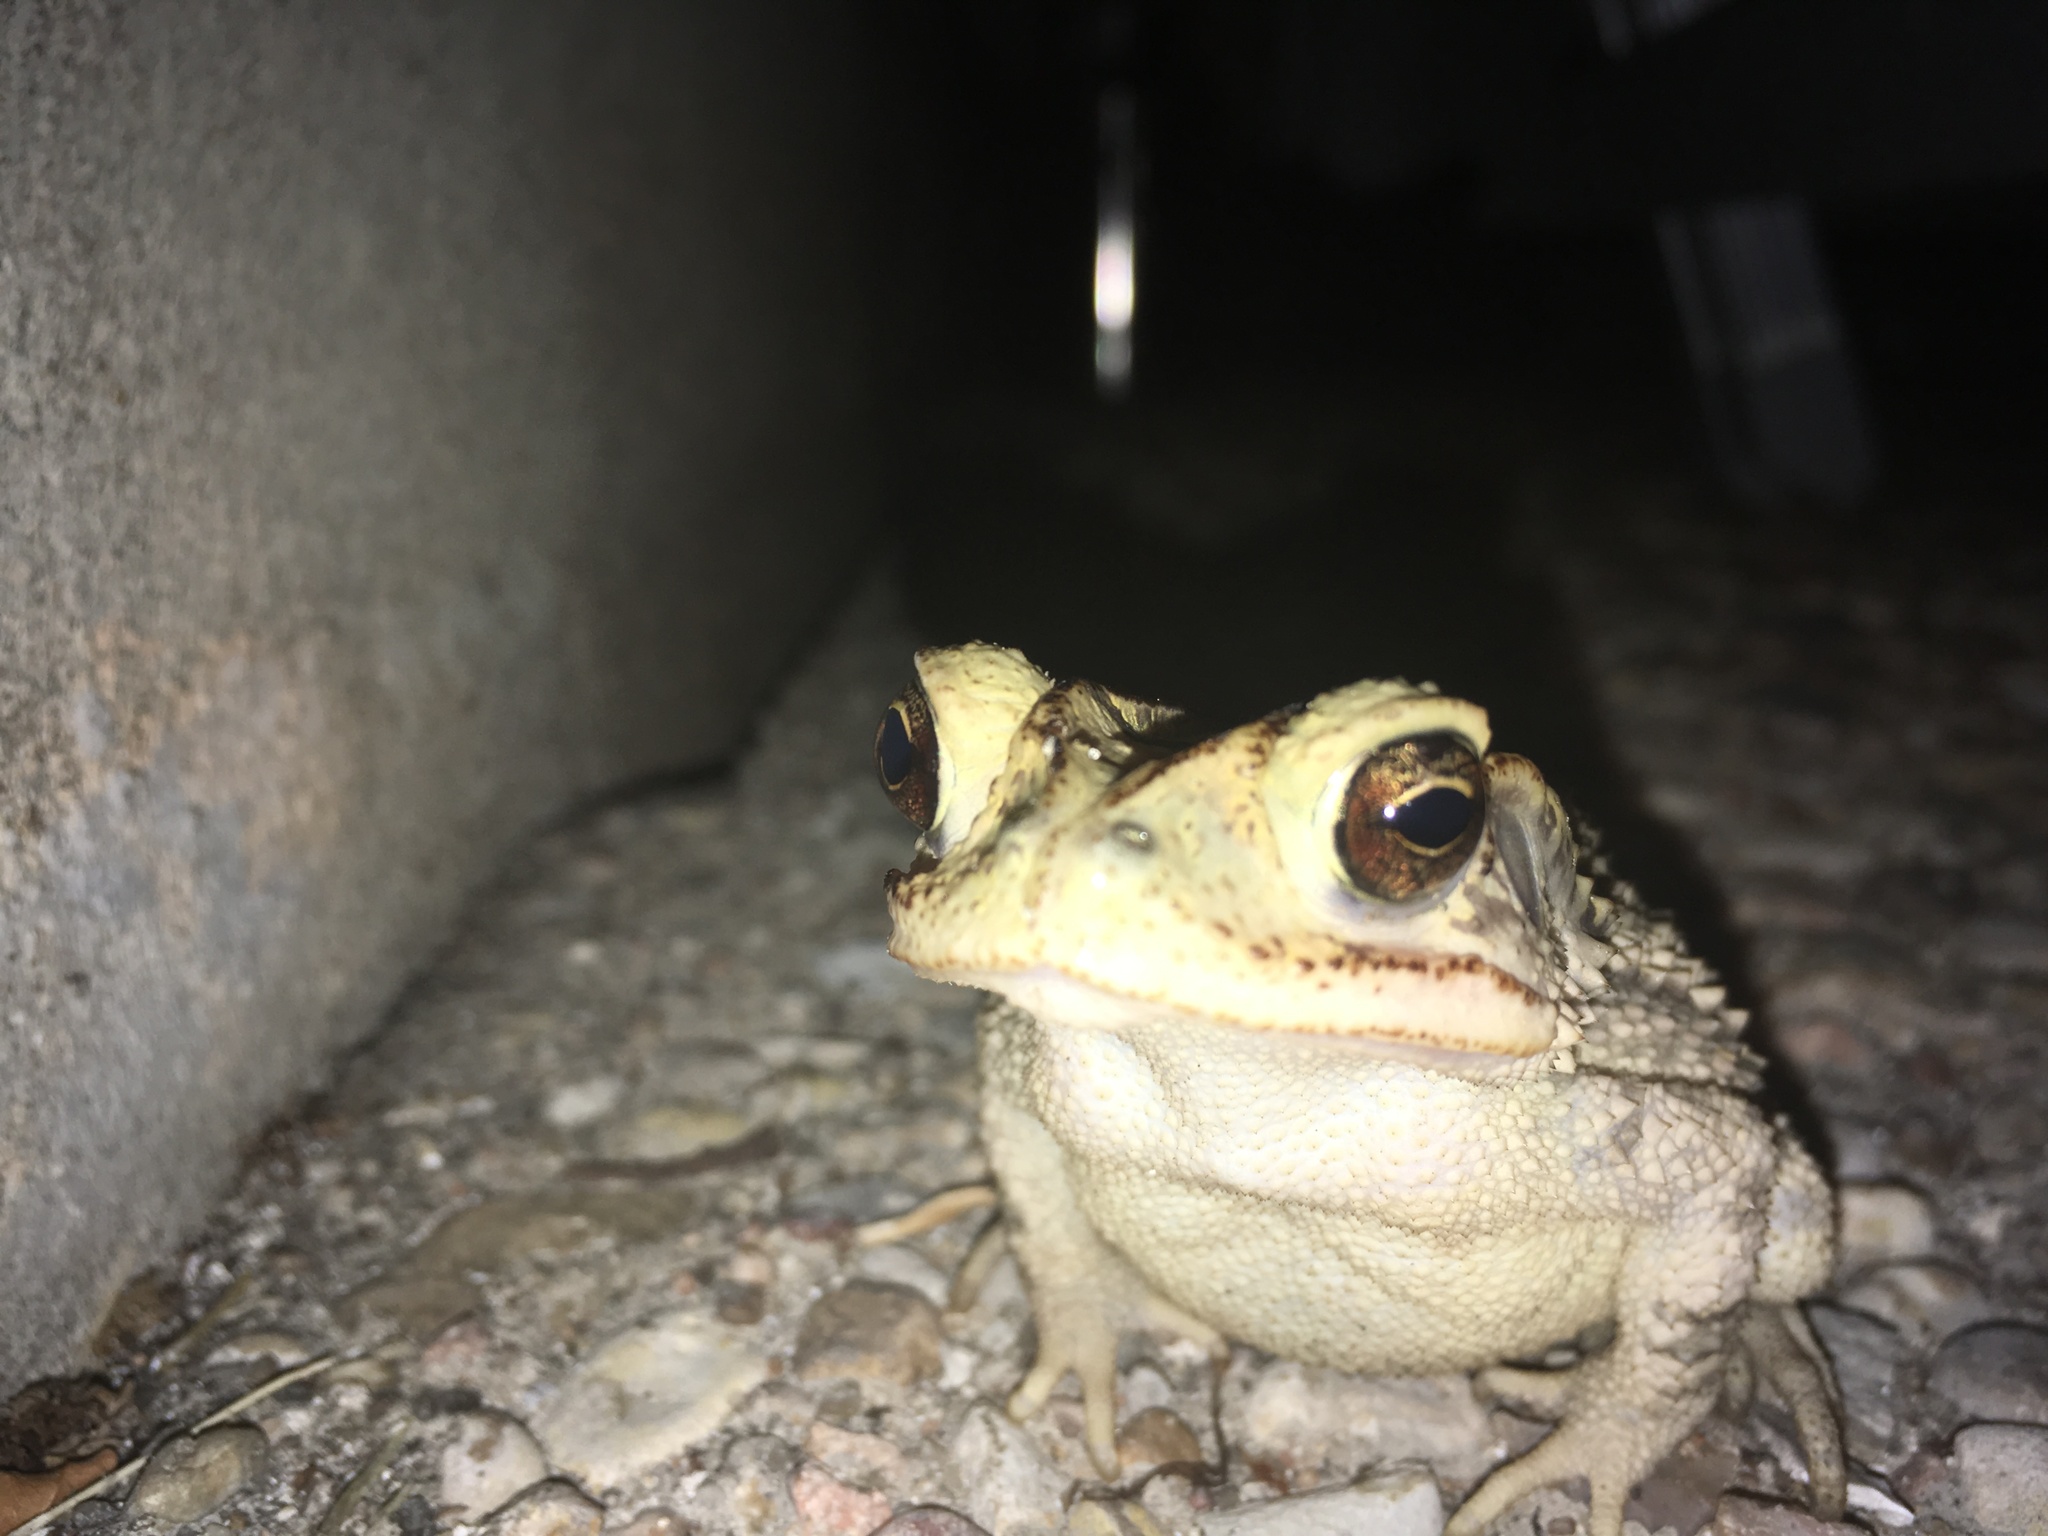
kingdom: Animalia
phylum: Chordata
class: Amphibia
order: Anura
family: Bufonidae
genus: Incilius
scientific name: Incilius nebulifer
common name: Gulf coast toad
